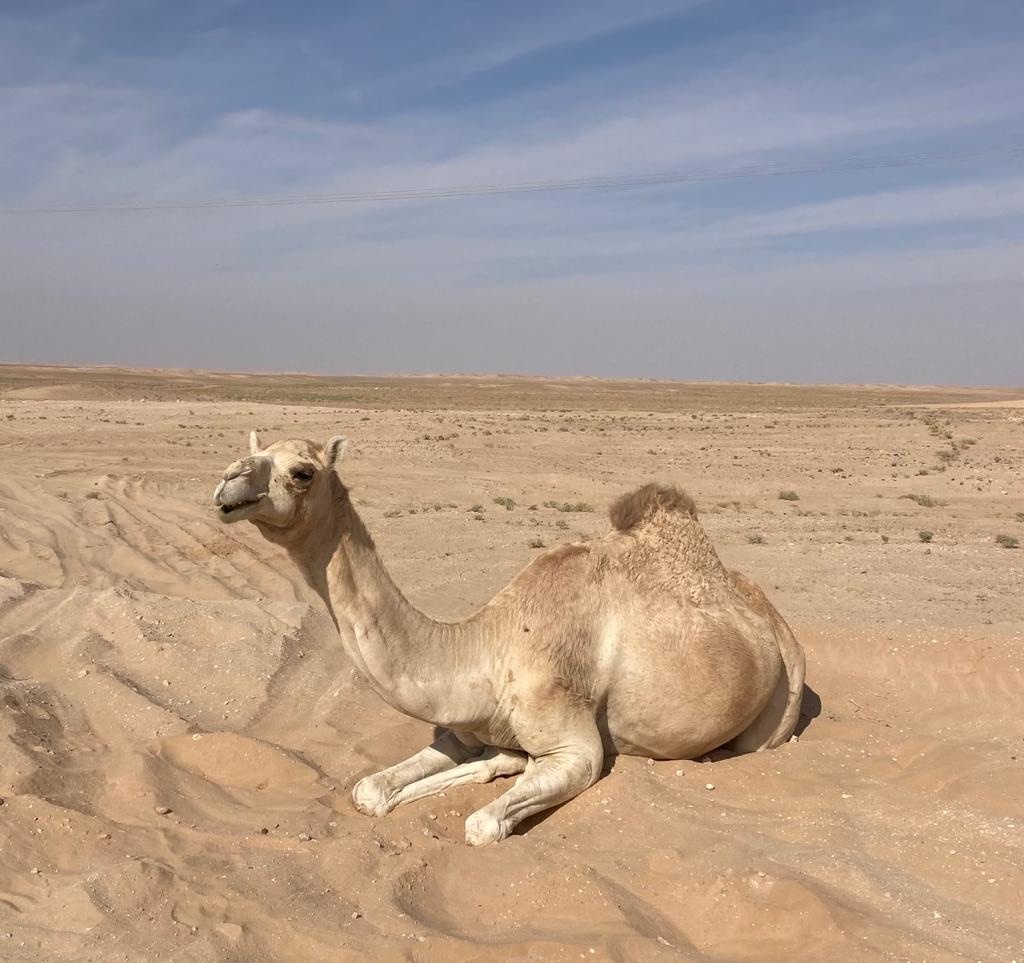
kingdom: Animalia
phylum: Chordata
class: Mammalia
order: Artiodactyla
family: Camelidae
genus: Camelus
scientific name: Camelus dromedarius
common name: One-humped camel
